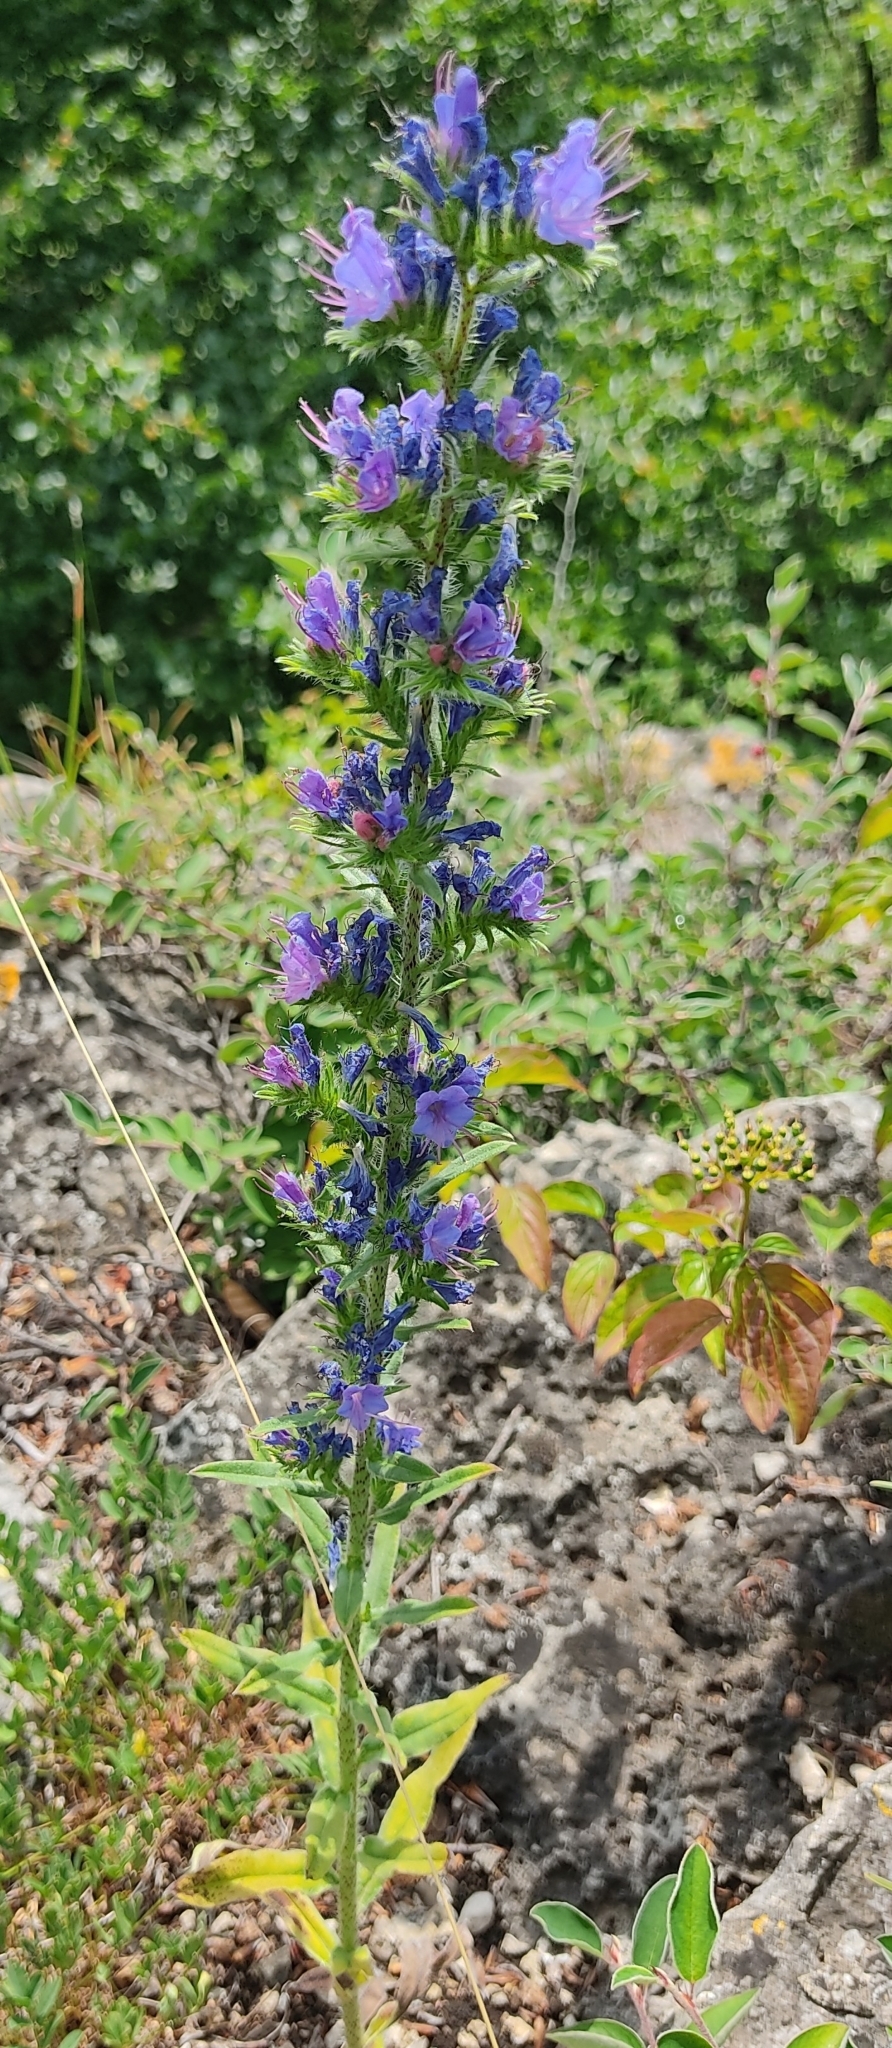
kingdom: Plantae
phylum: Tracheophyta
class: Magnoliopsida
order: Boraginales
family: Boraginaceae
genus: Echium
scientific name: Echium vulgare
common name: Common viper's bugloss
